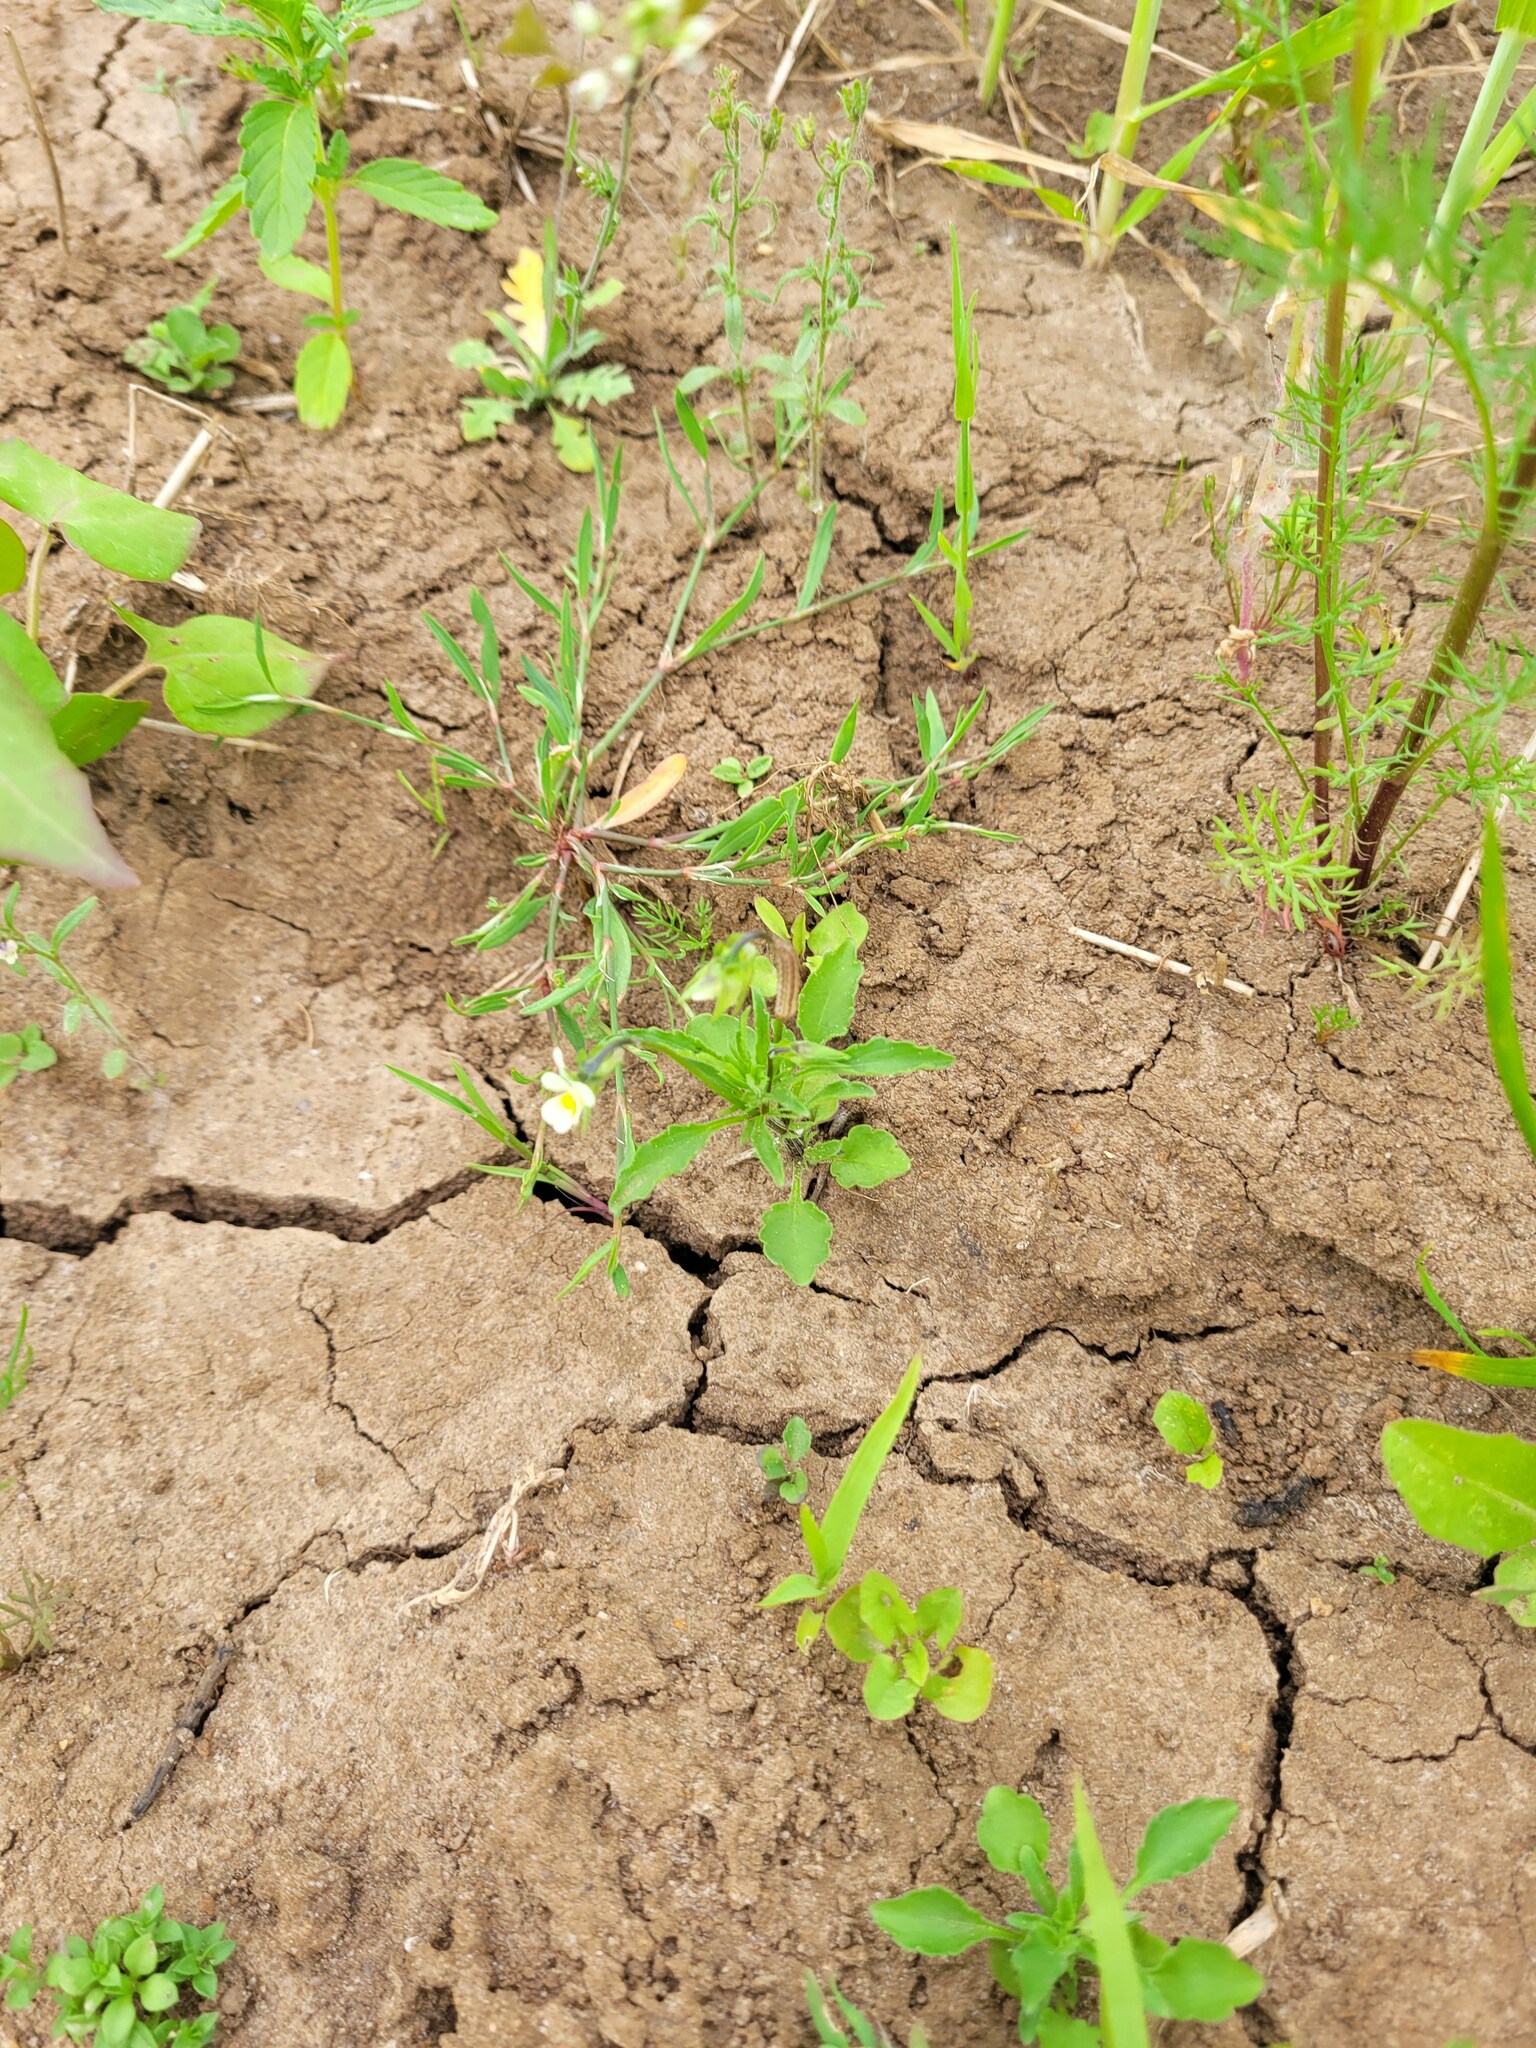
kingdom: Plantae
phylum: Tracheophyta
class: Magnoliopsida
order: Malpighiales
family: Violaceae
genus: Viola
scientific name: Viola arvensis
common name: Field pansy
